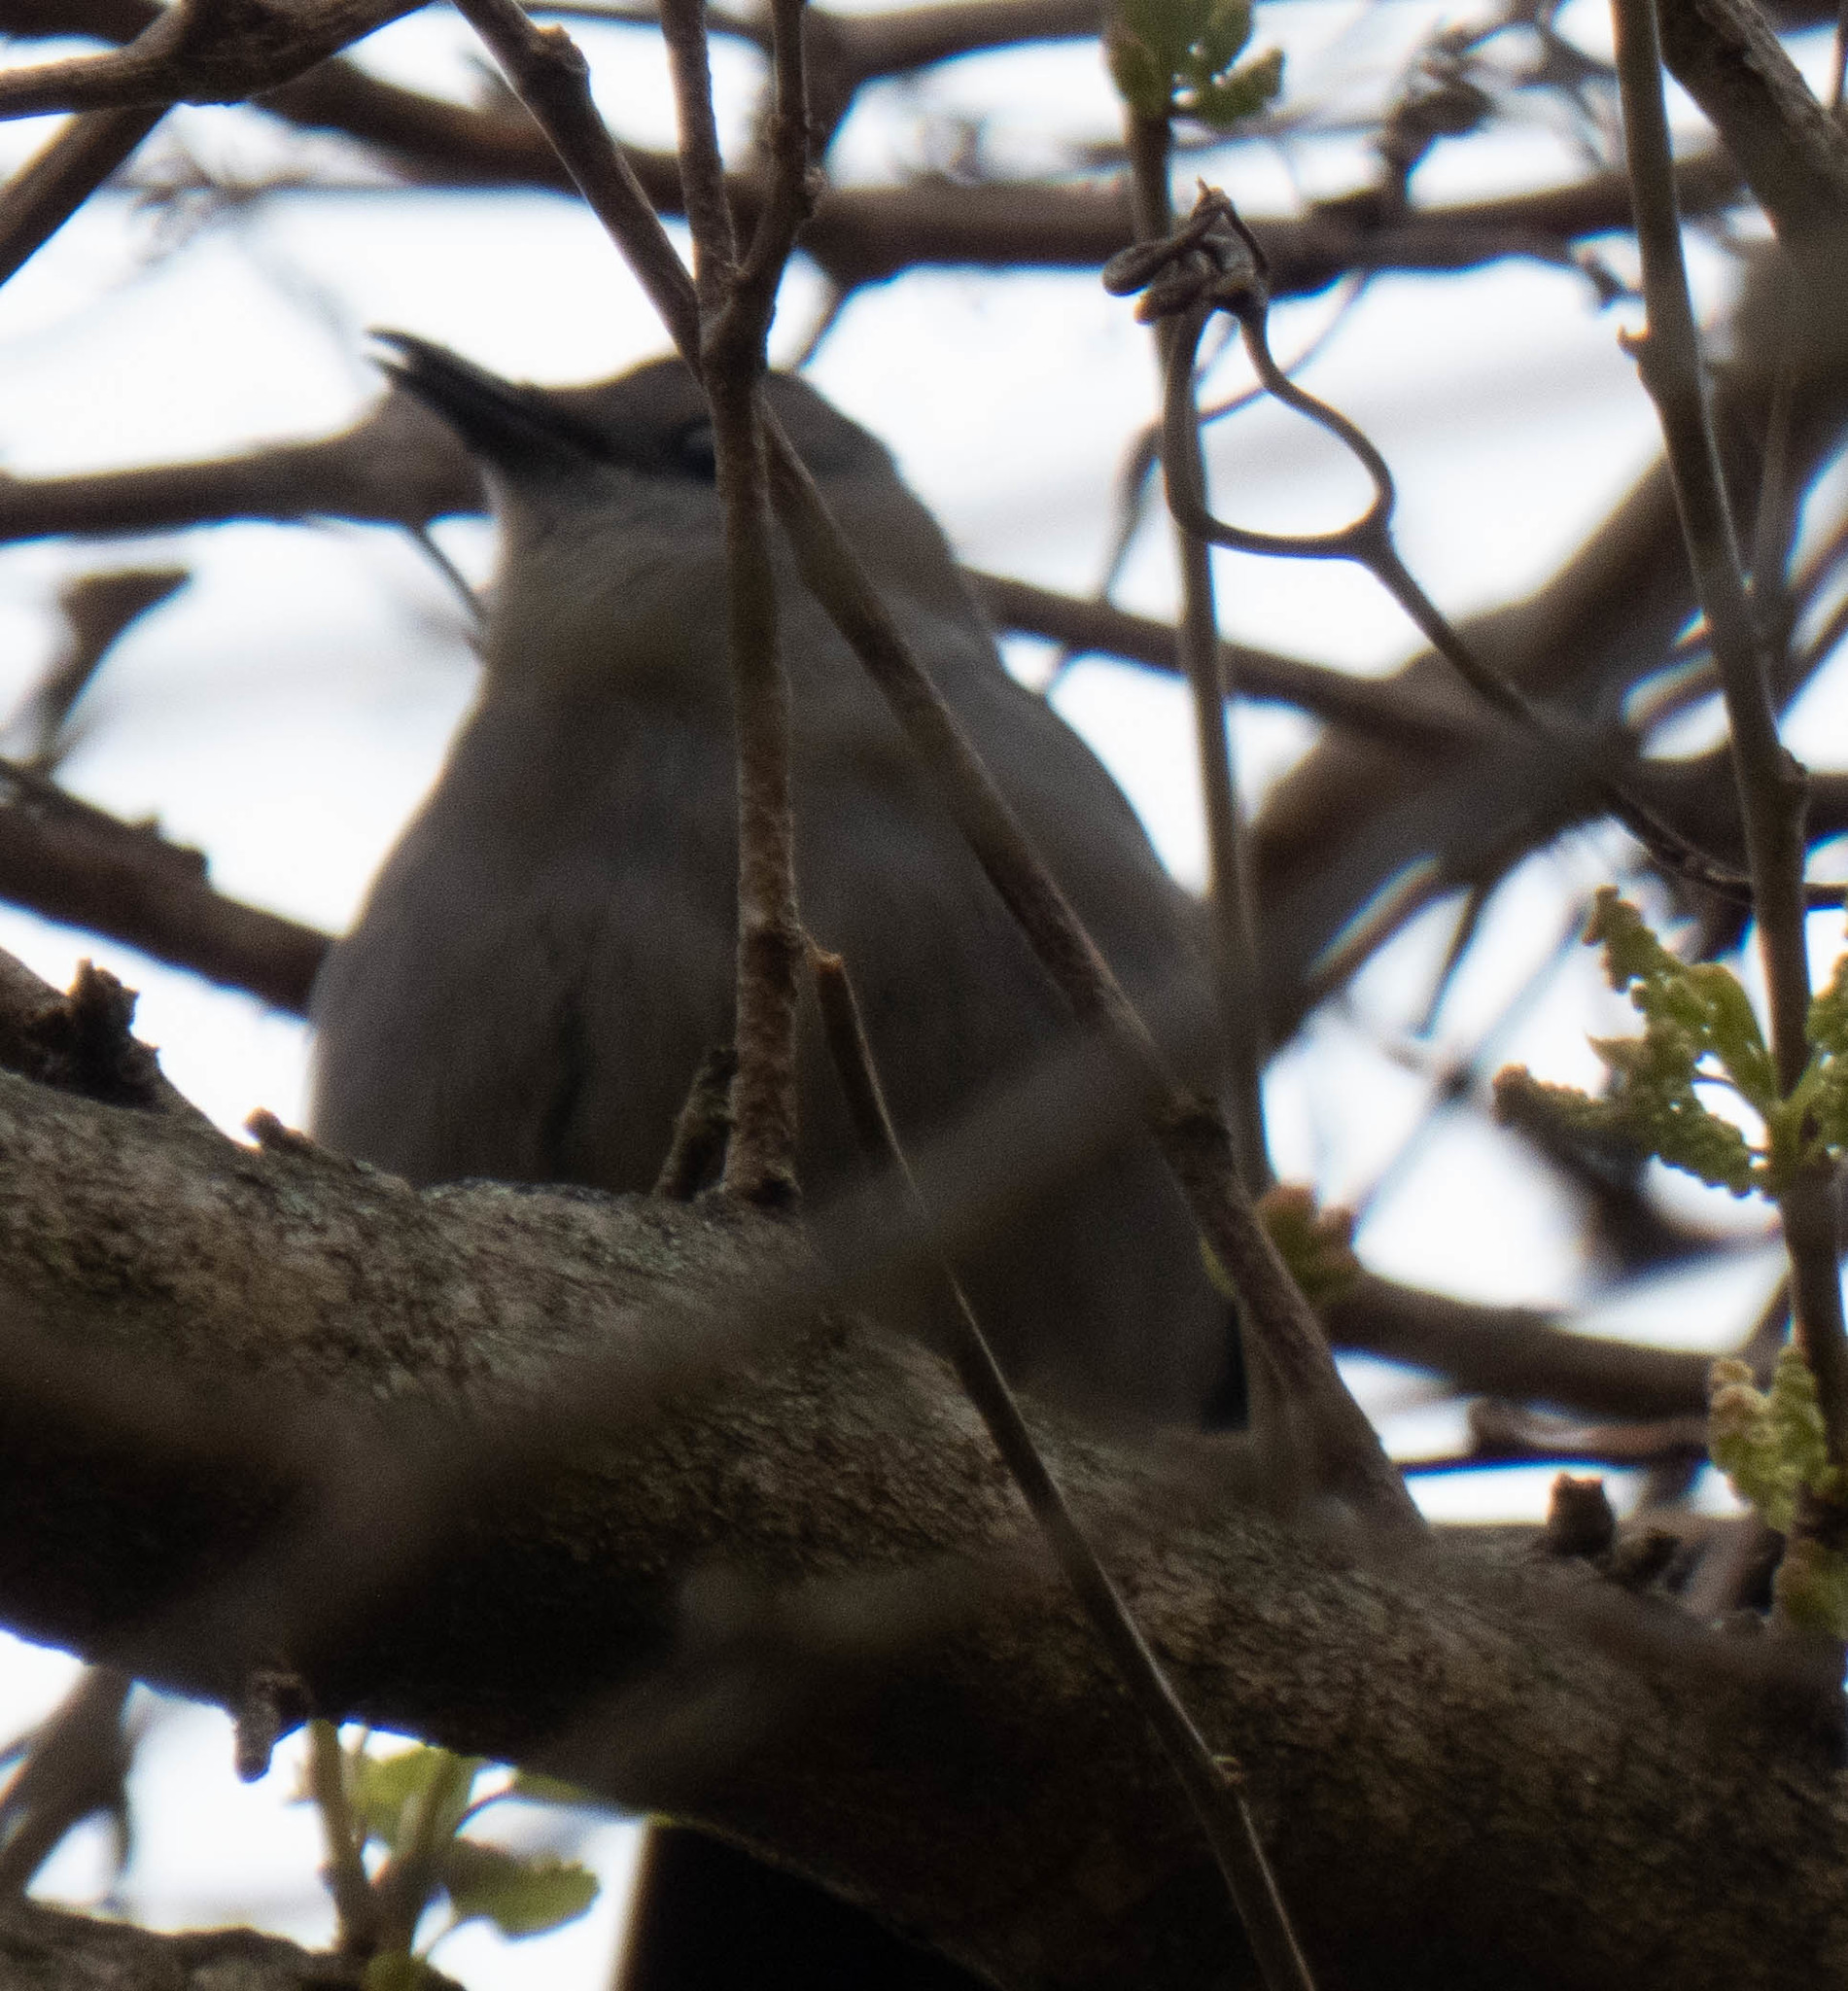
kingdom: Animalia
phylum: Chordata
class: Aves
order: Passeriformes
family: Mimidae
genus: Dumetella
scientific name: Dumetella carolinensis
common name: Gray catbird
